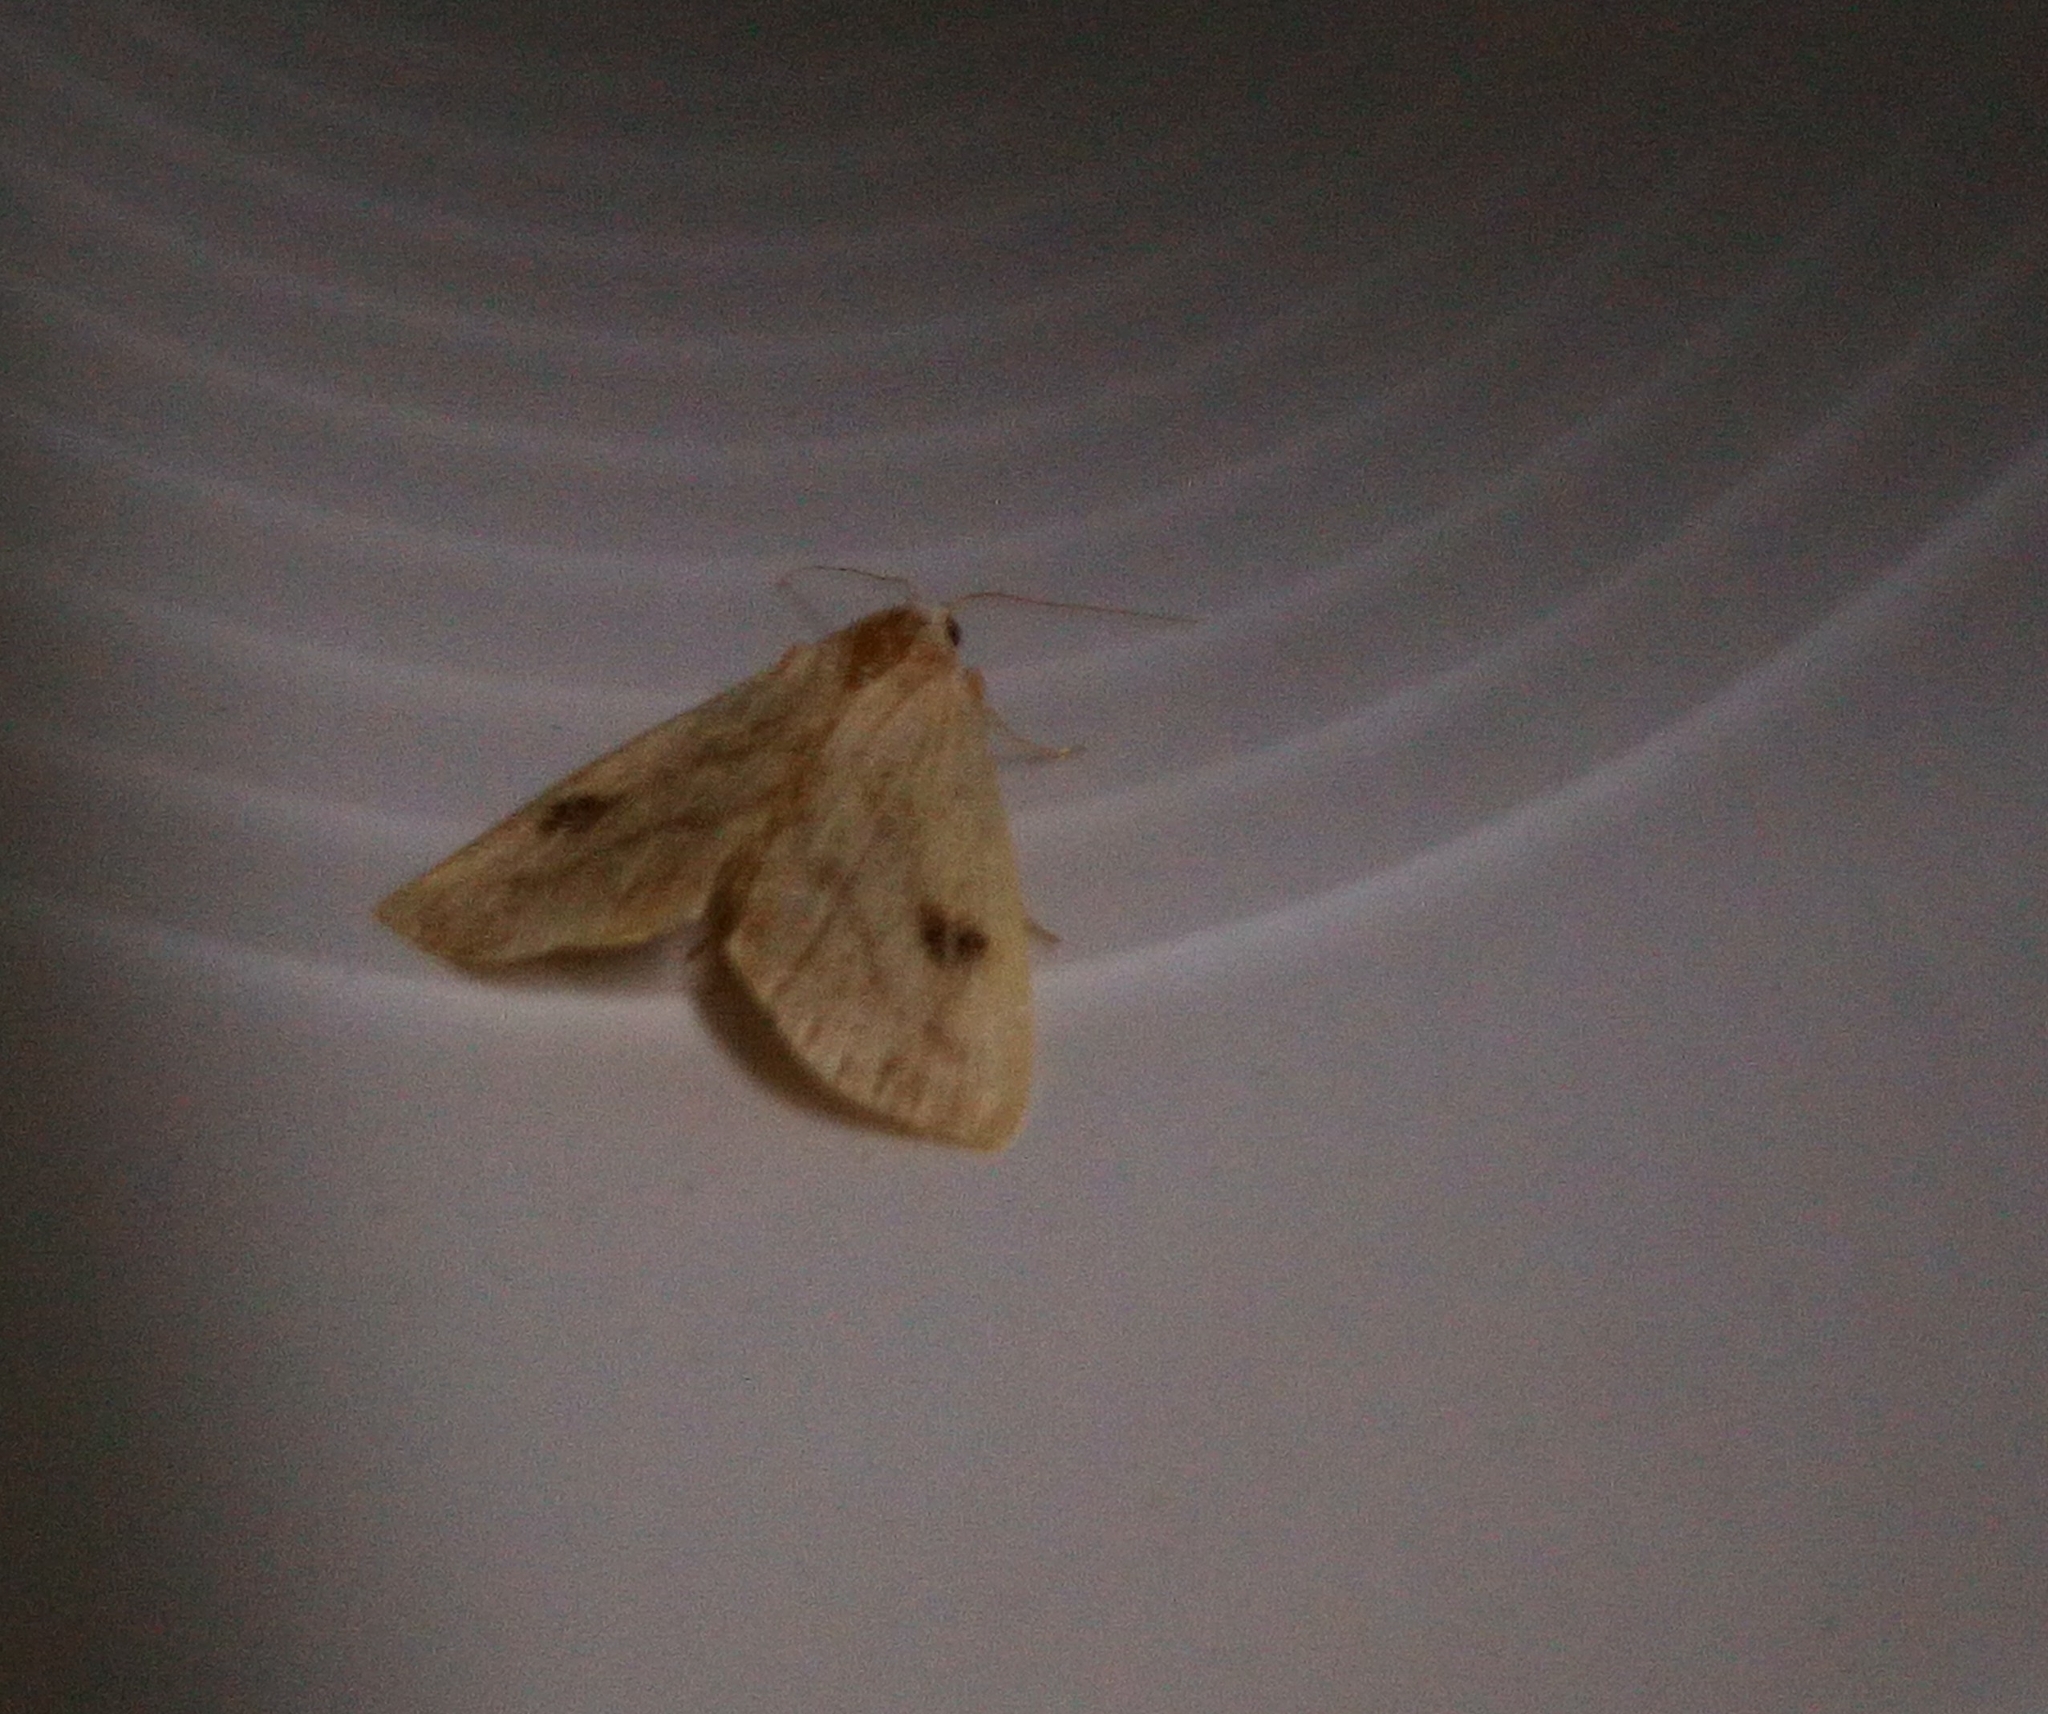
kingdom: Animalia
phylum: Arthropoda
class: Insecta
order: Lepidoptera
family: Erebidae
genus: Rivula
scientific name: Rivula sericealis
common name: Straw dot
